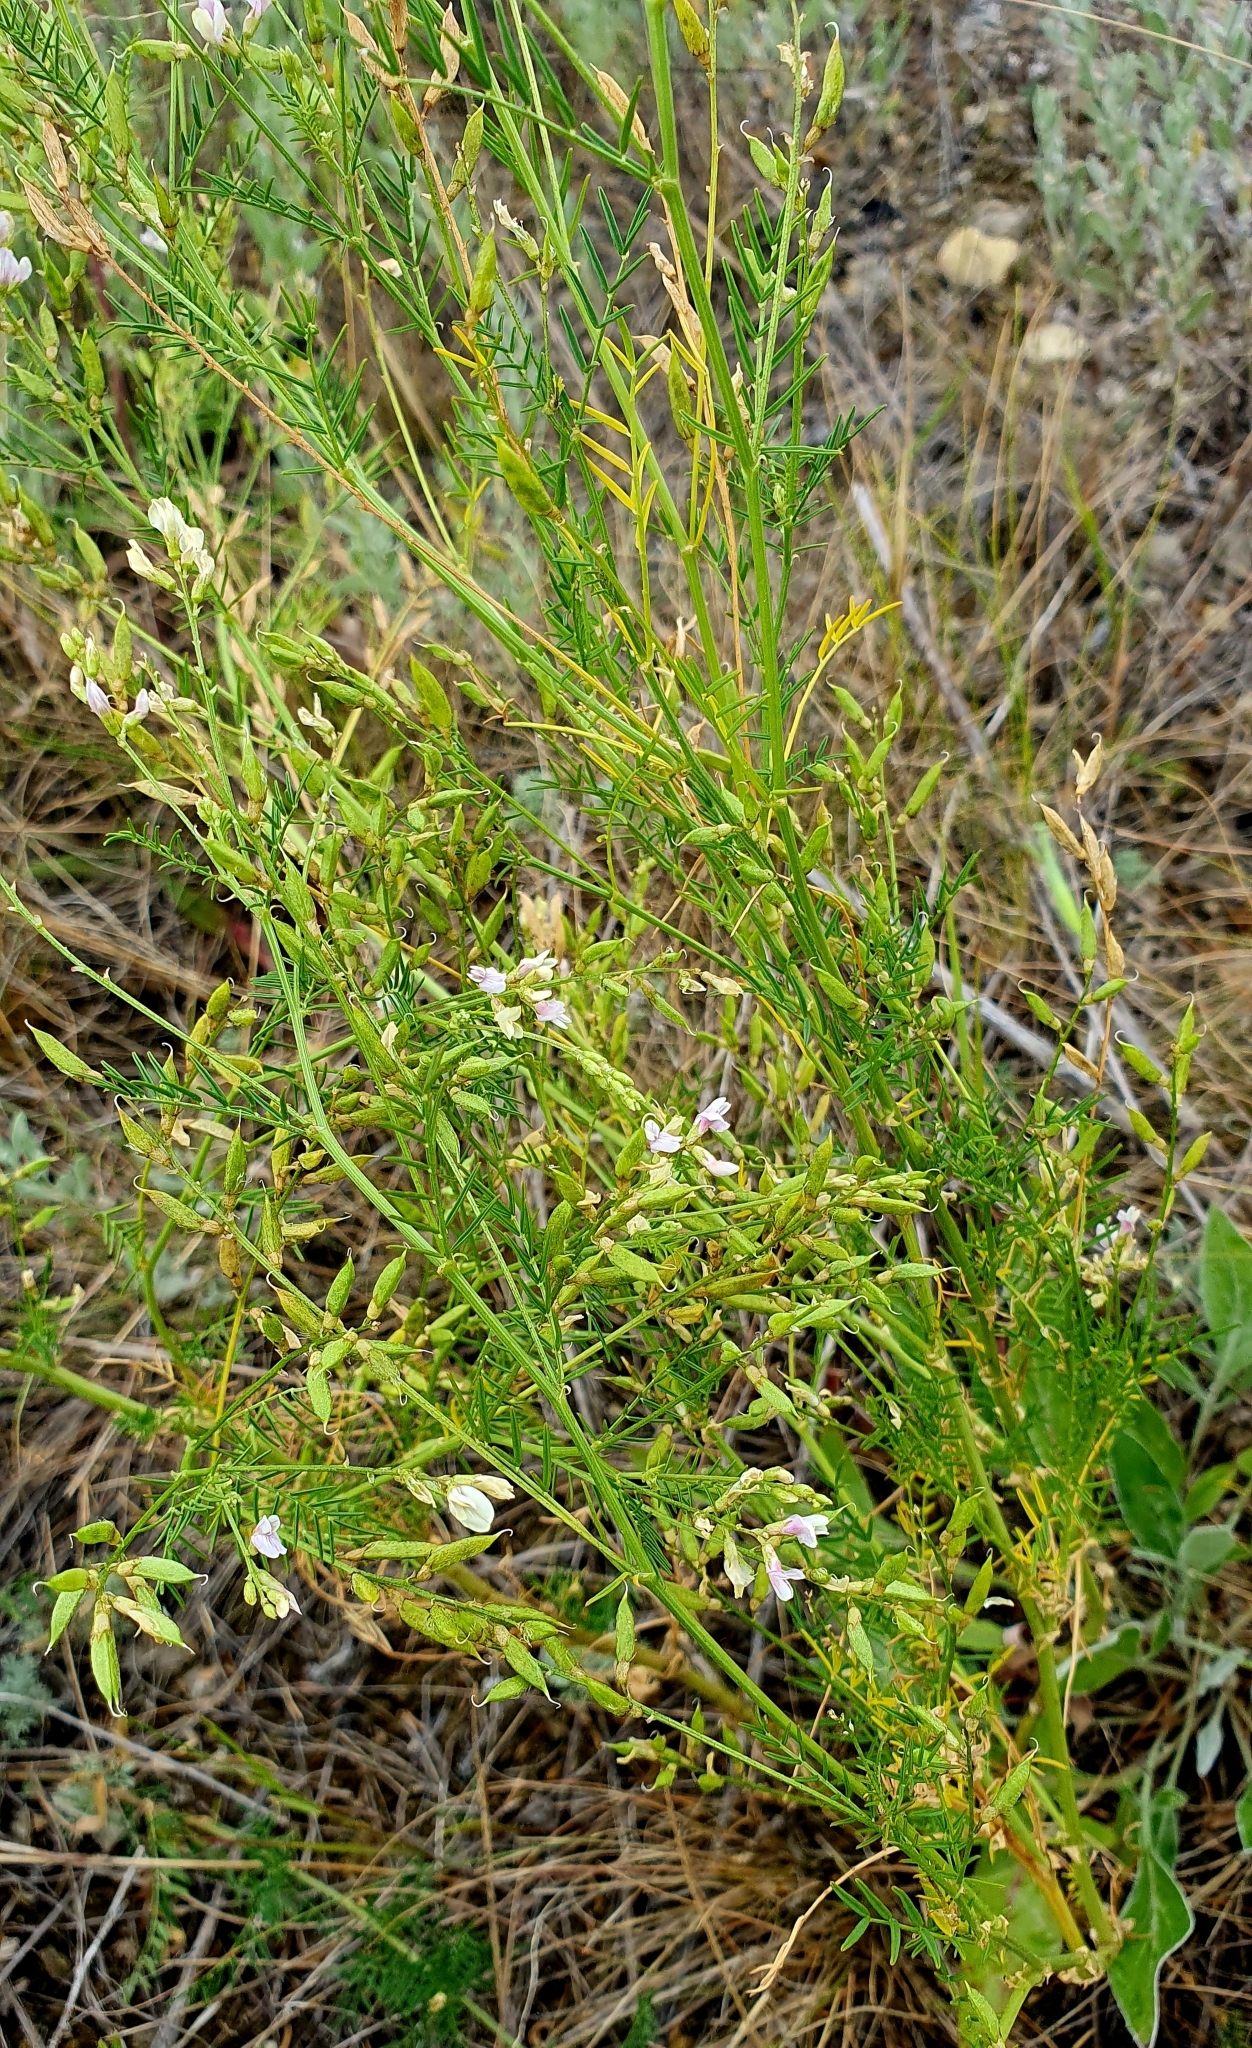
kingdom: Plantae
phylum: Tracheophyta
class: Magnoliopsida
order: Fabales
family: Fabaceae
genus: Astragalus
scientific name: Astragalus sulcatus
